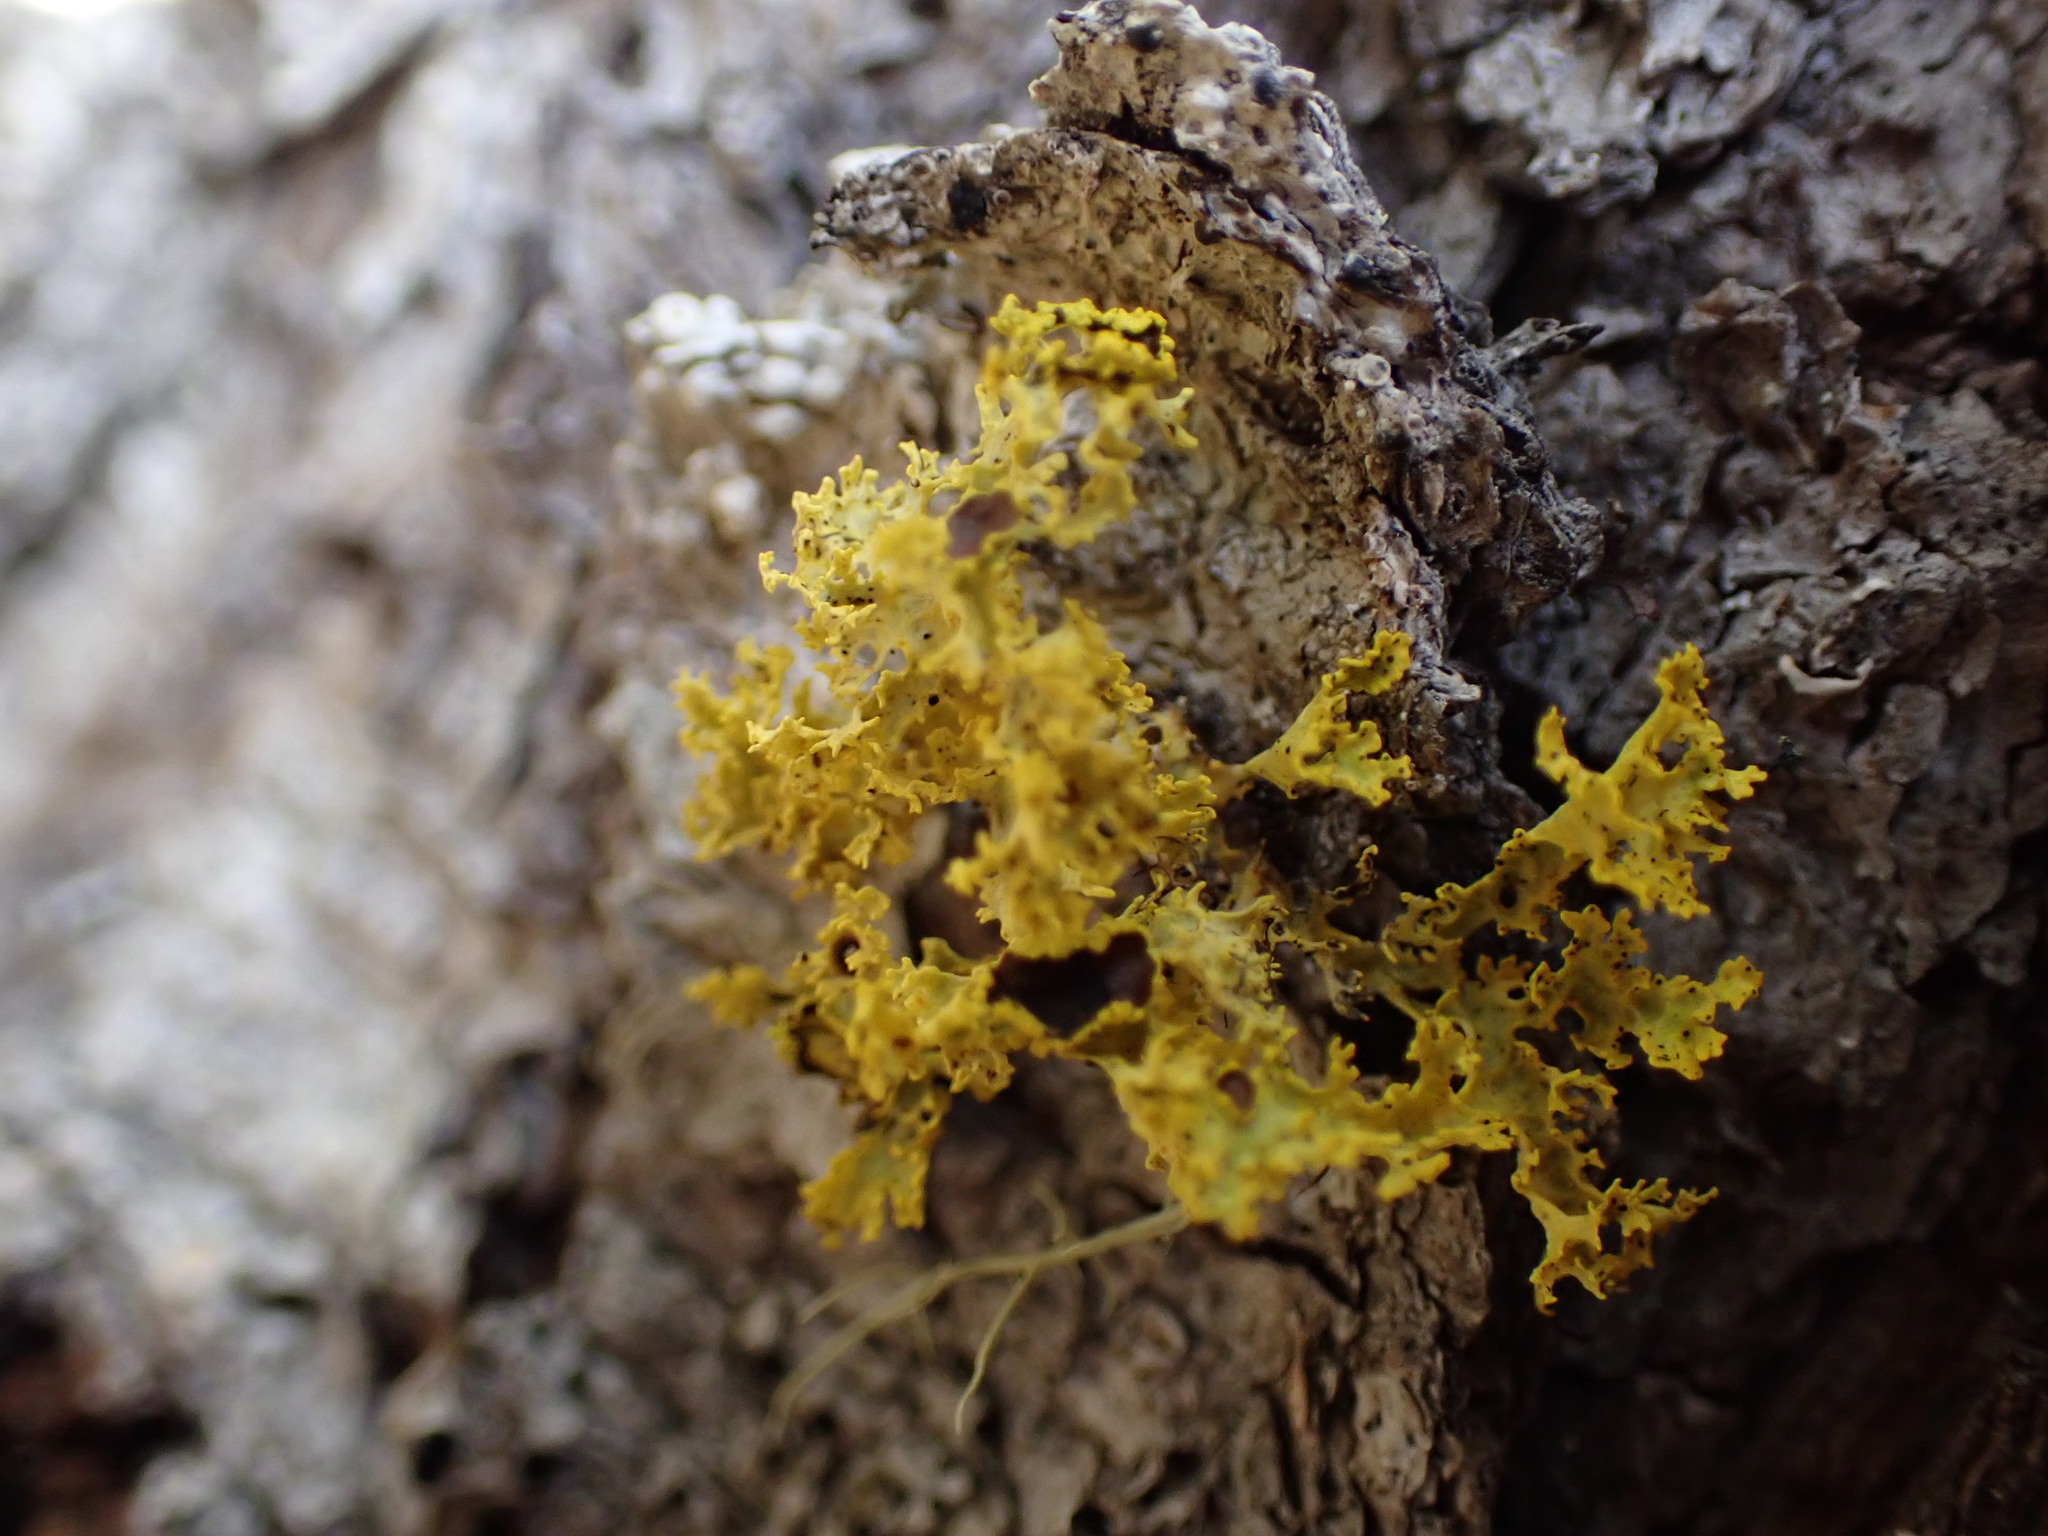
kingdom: Fungi
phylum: Ascomycota
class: Lecanoromycetes
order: Lecanorales
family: Parmeliaceae
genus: Vulpicida
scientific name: Vulpicida canadensis
